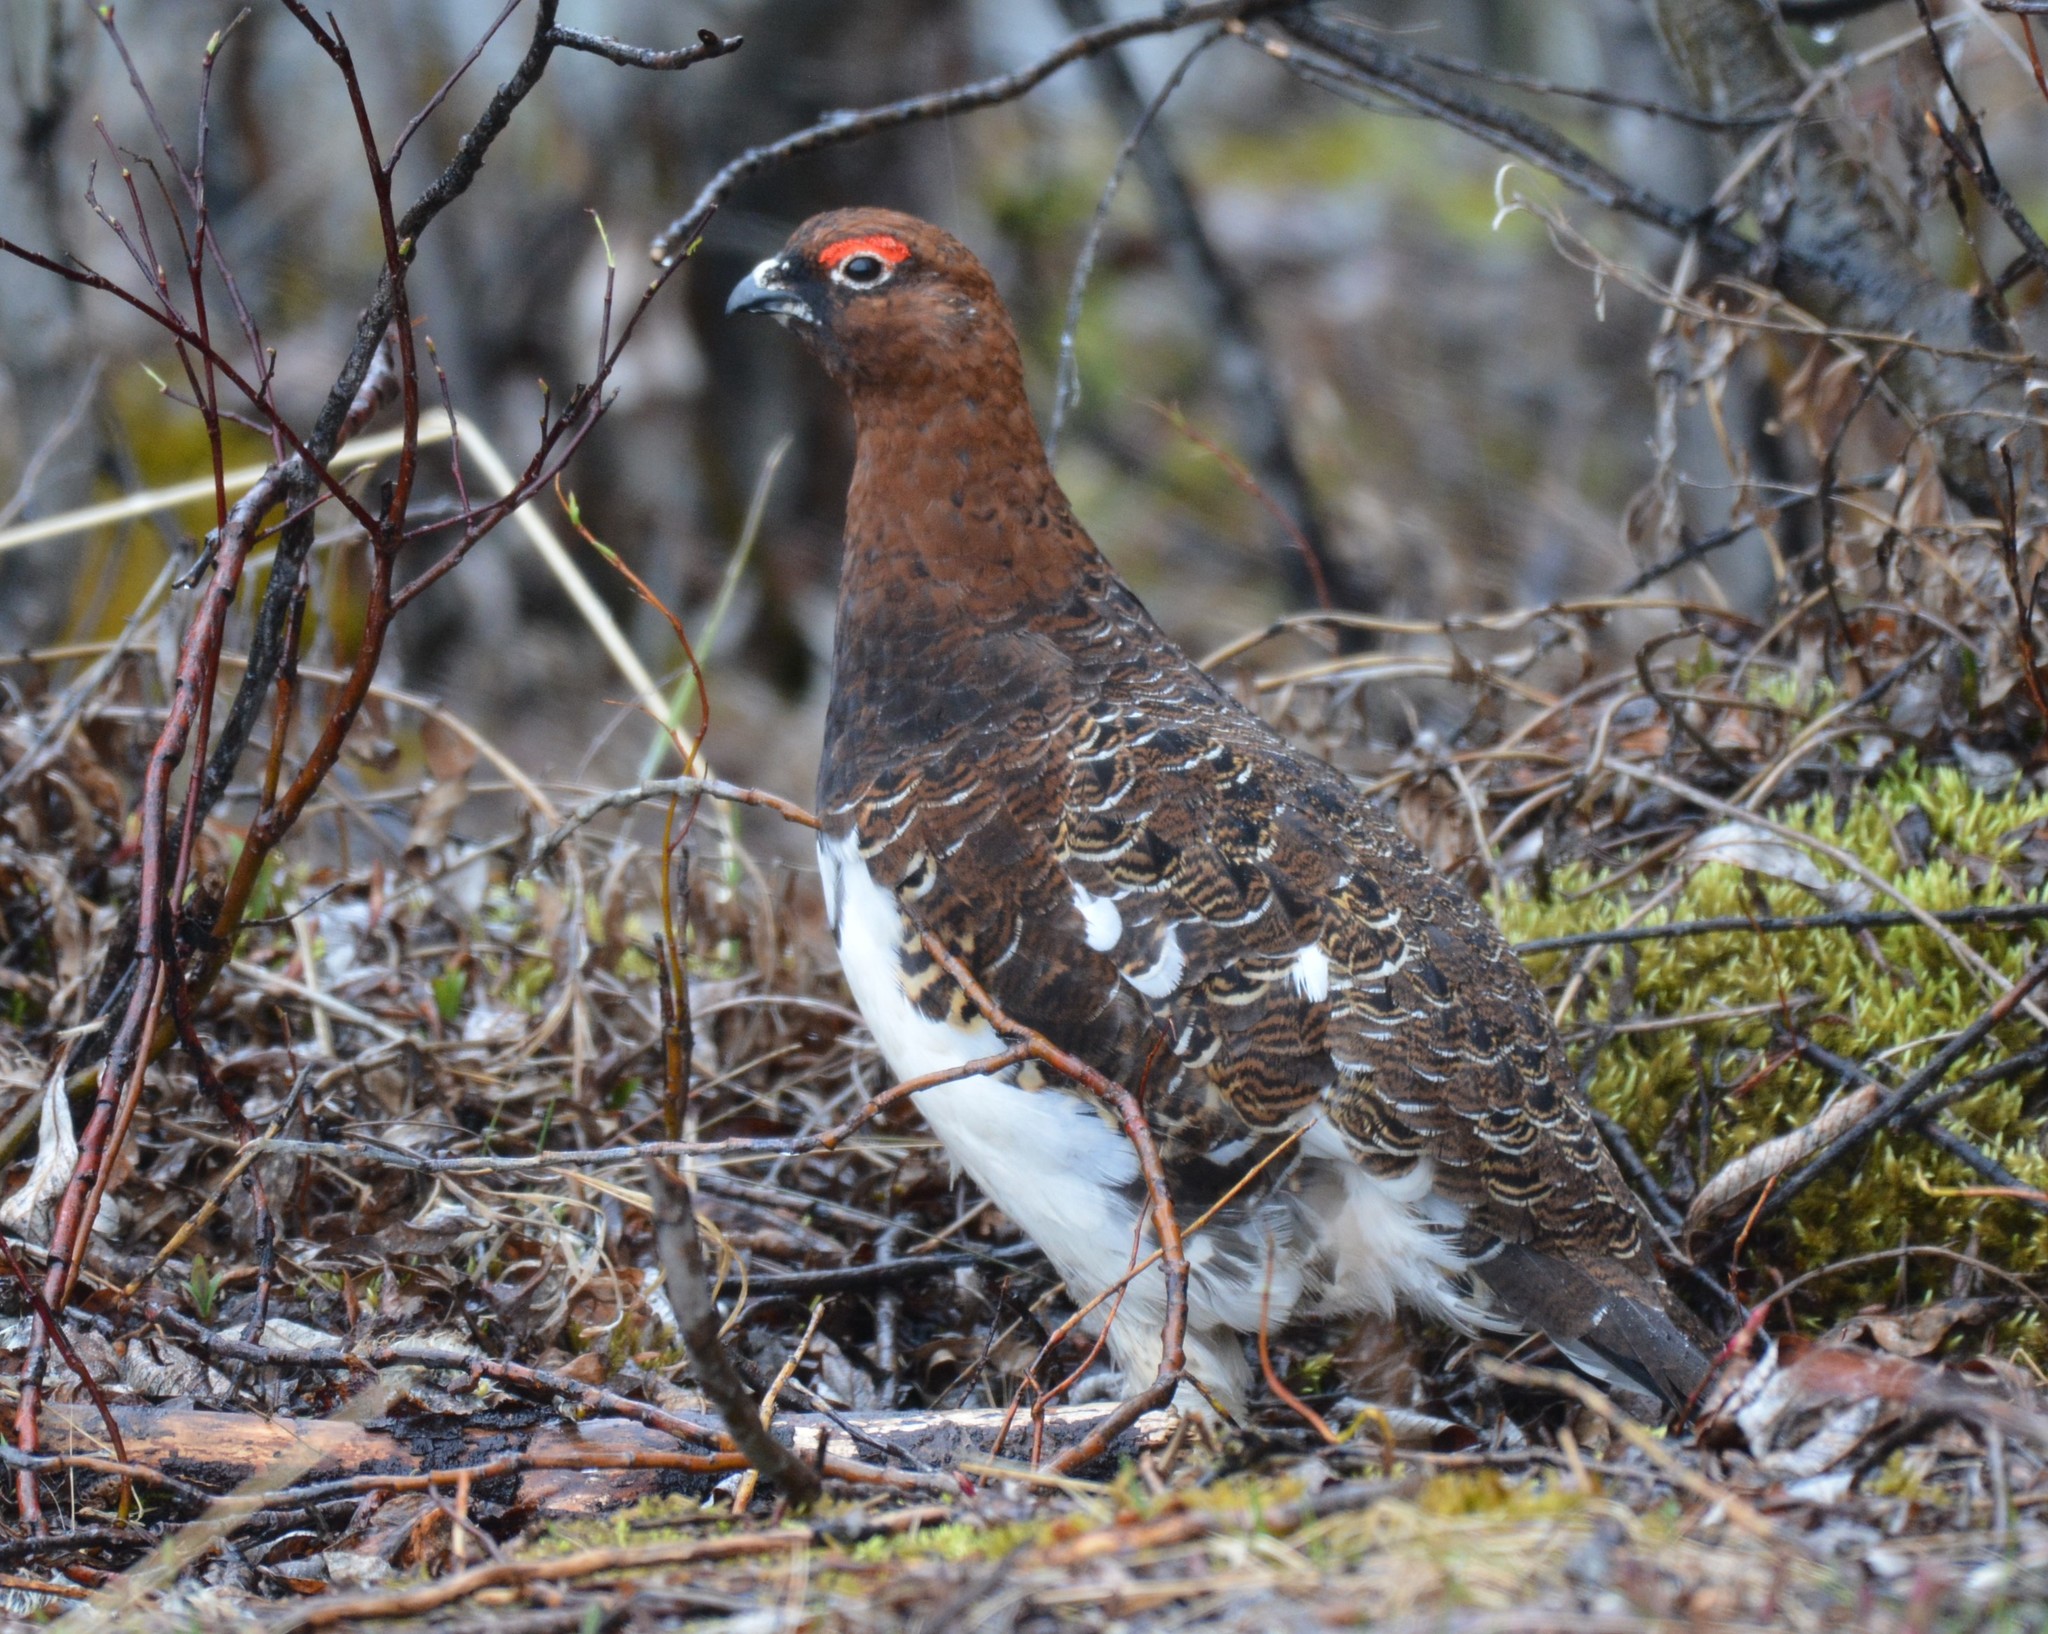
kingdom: Animalia
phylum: Chordata
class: Aves
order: Galliformes
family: Phasianidae
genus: Lagopus
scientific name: Lagopus lagopus
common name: Willow ptarmigan
